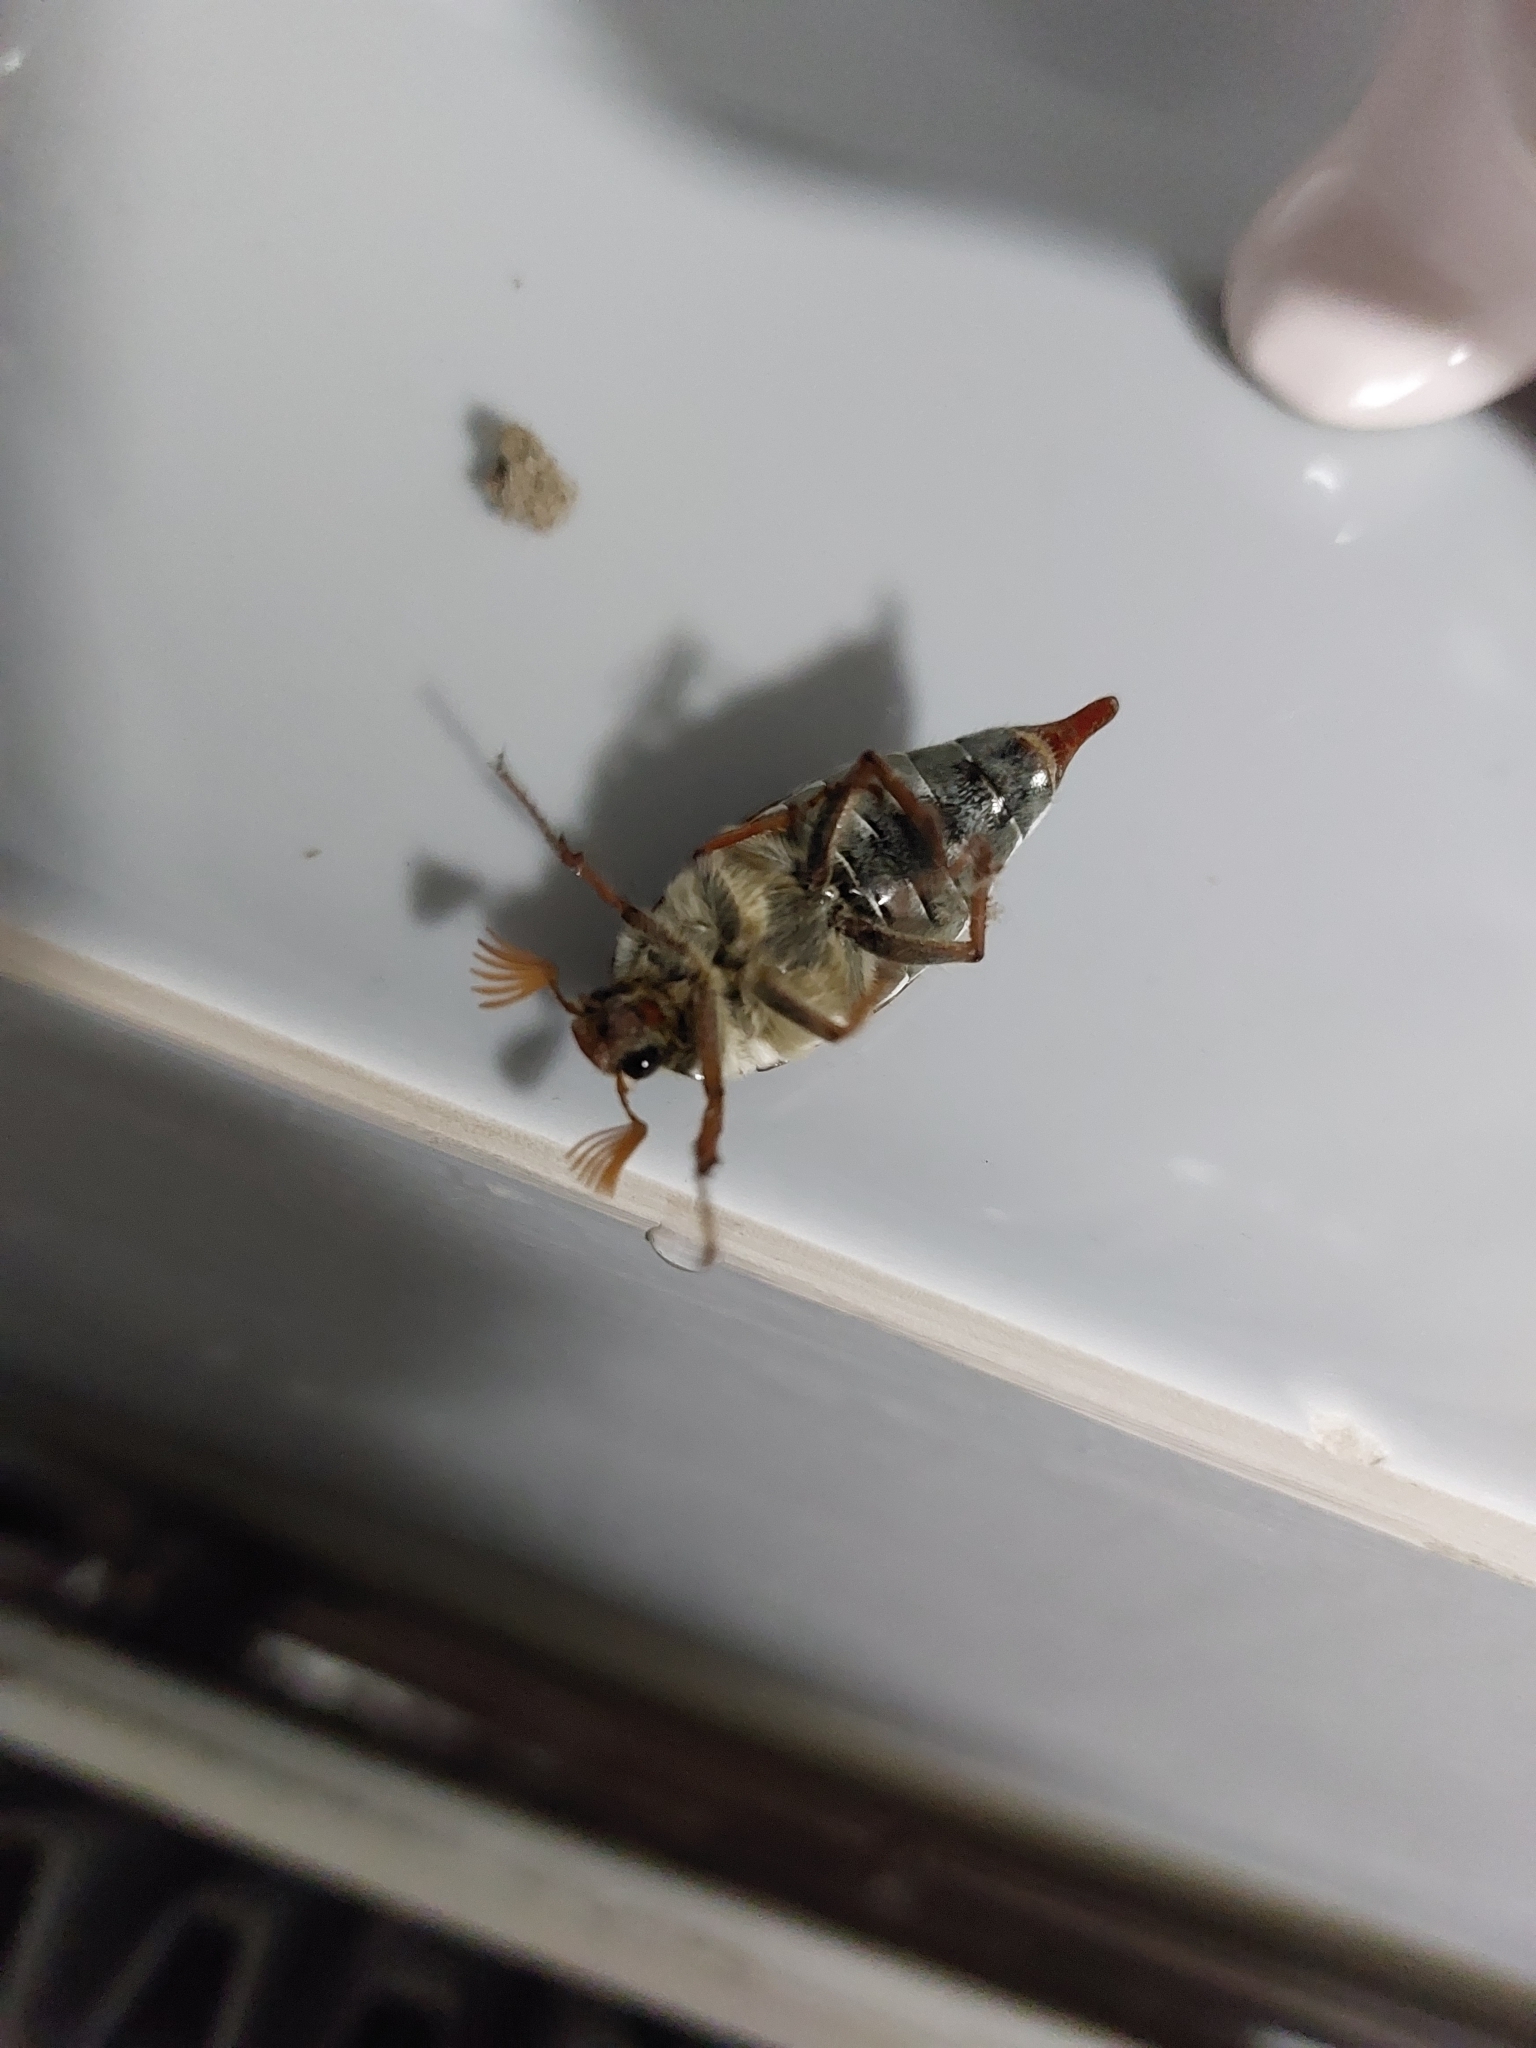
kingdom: Animalia
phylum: Arthropoda
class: Insecta
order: Coleoptera
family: Scarabaeidae
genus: Melolontha
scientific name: Melolontha melolontha
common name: Cockchafer maybeetle
